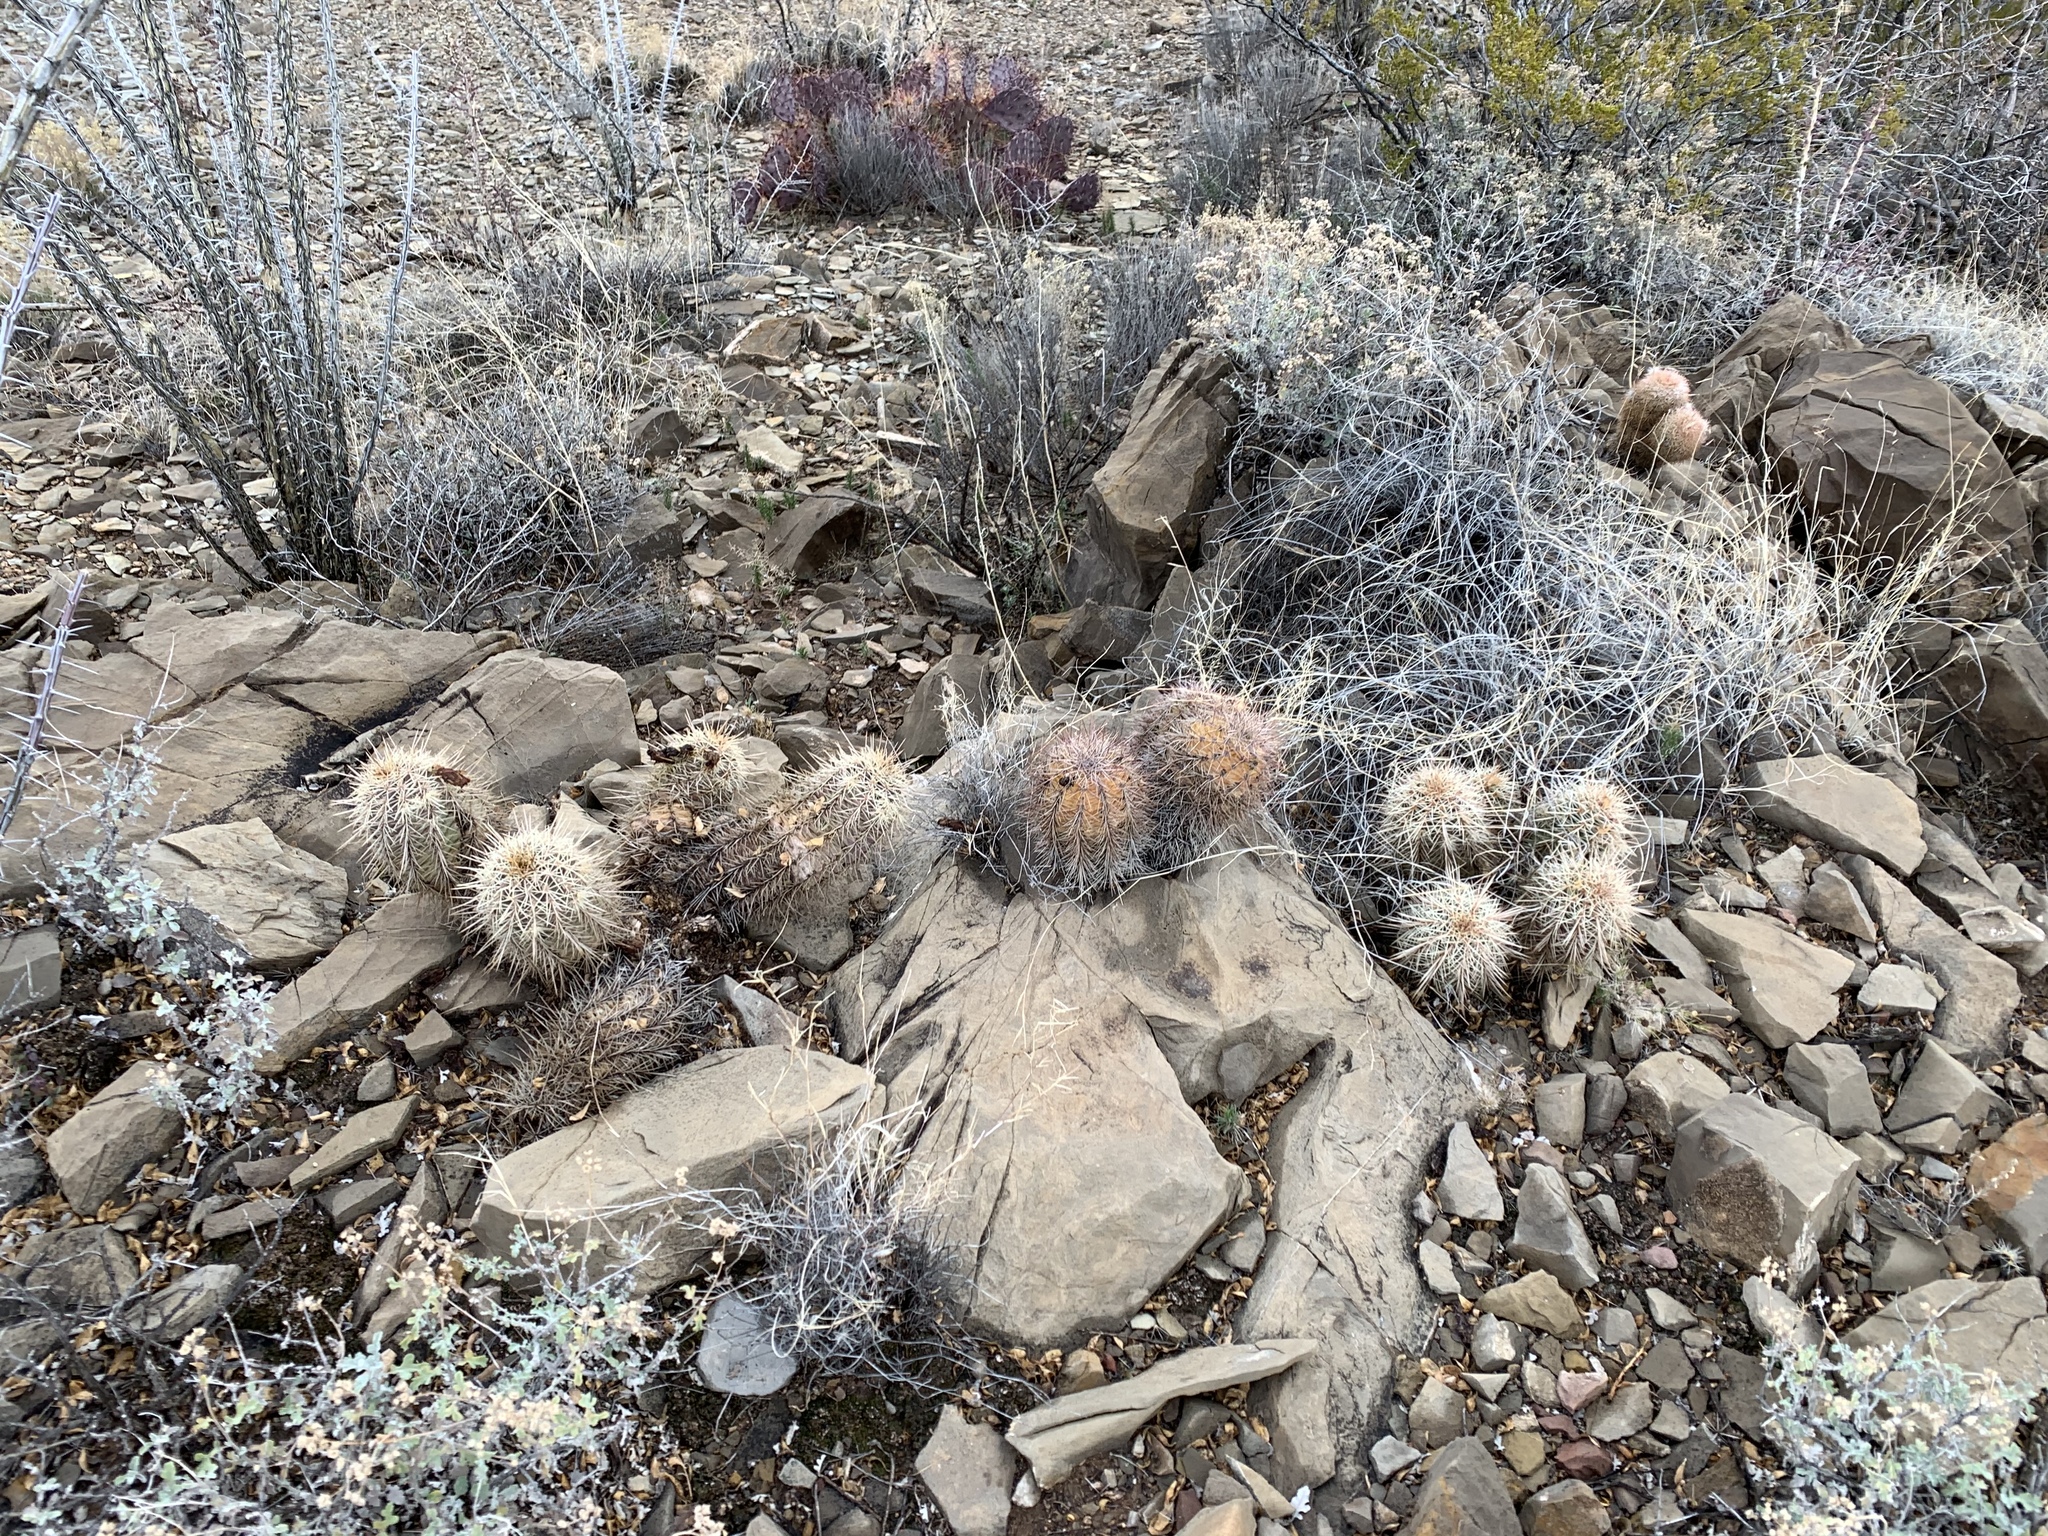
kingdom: Plantae
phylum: Tracheophyta
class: Magnoliopsida
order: Caryophyllales
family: Cactaceae
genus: Echinocereus
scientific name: Echinocereus coccineus
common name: Scarlet hedgehog cactus
